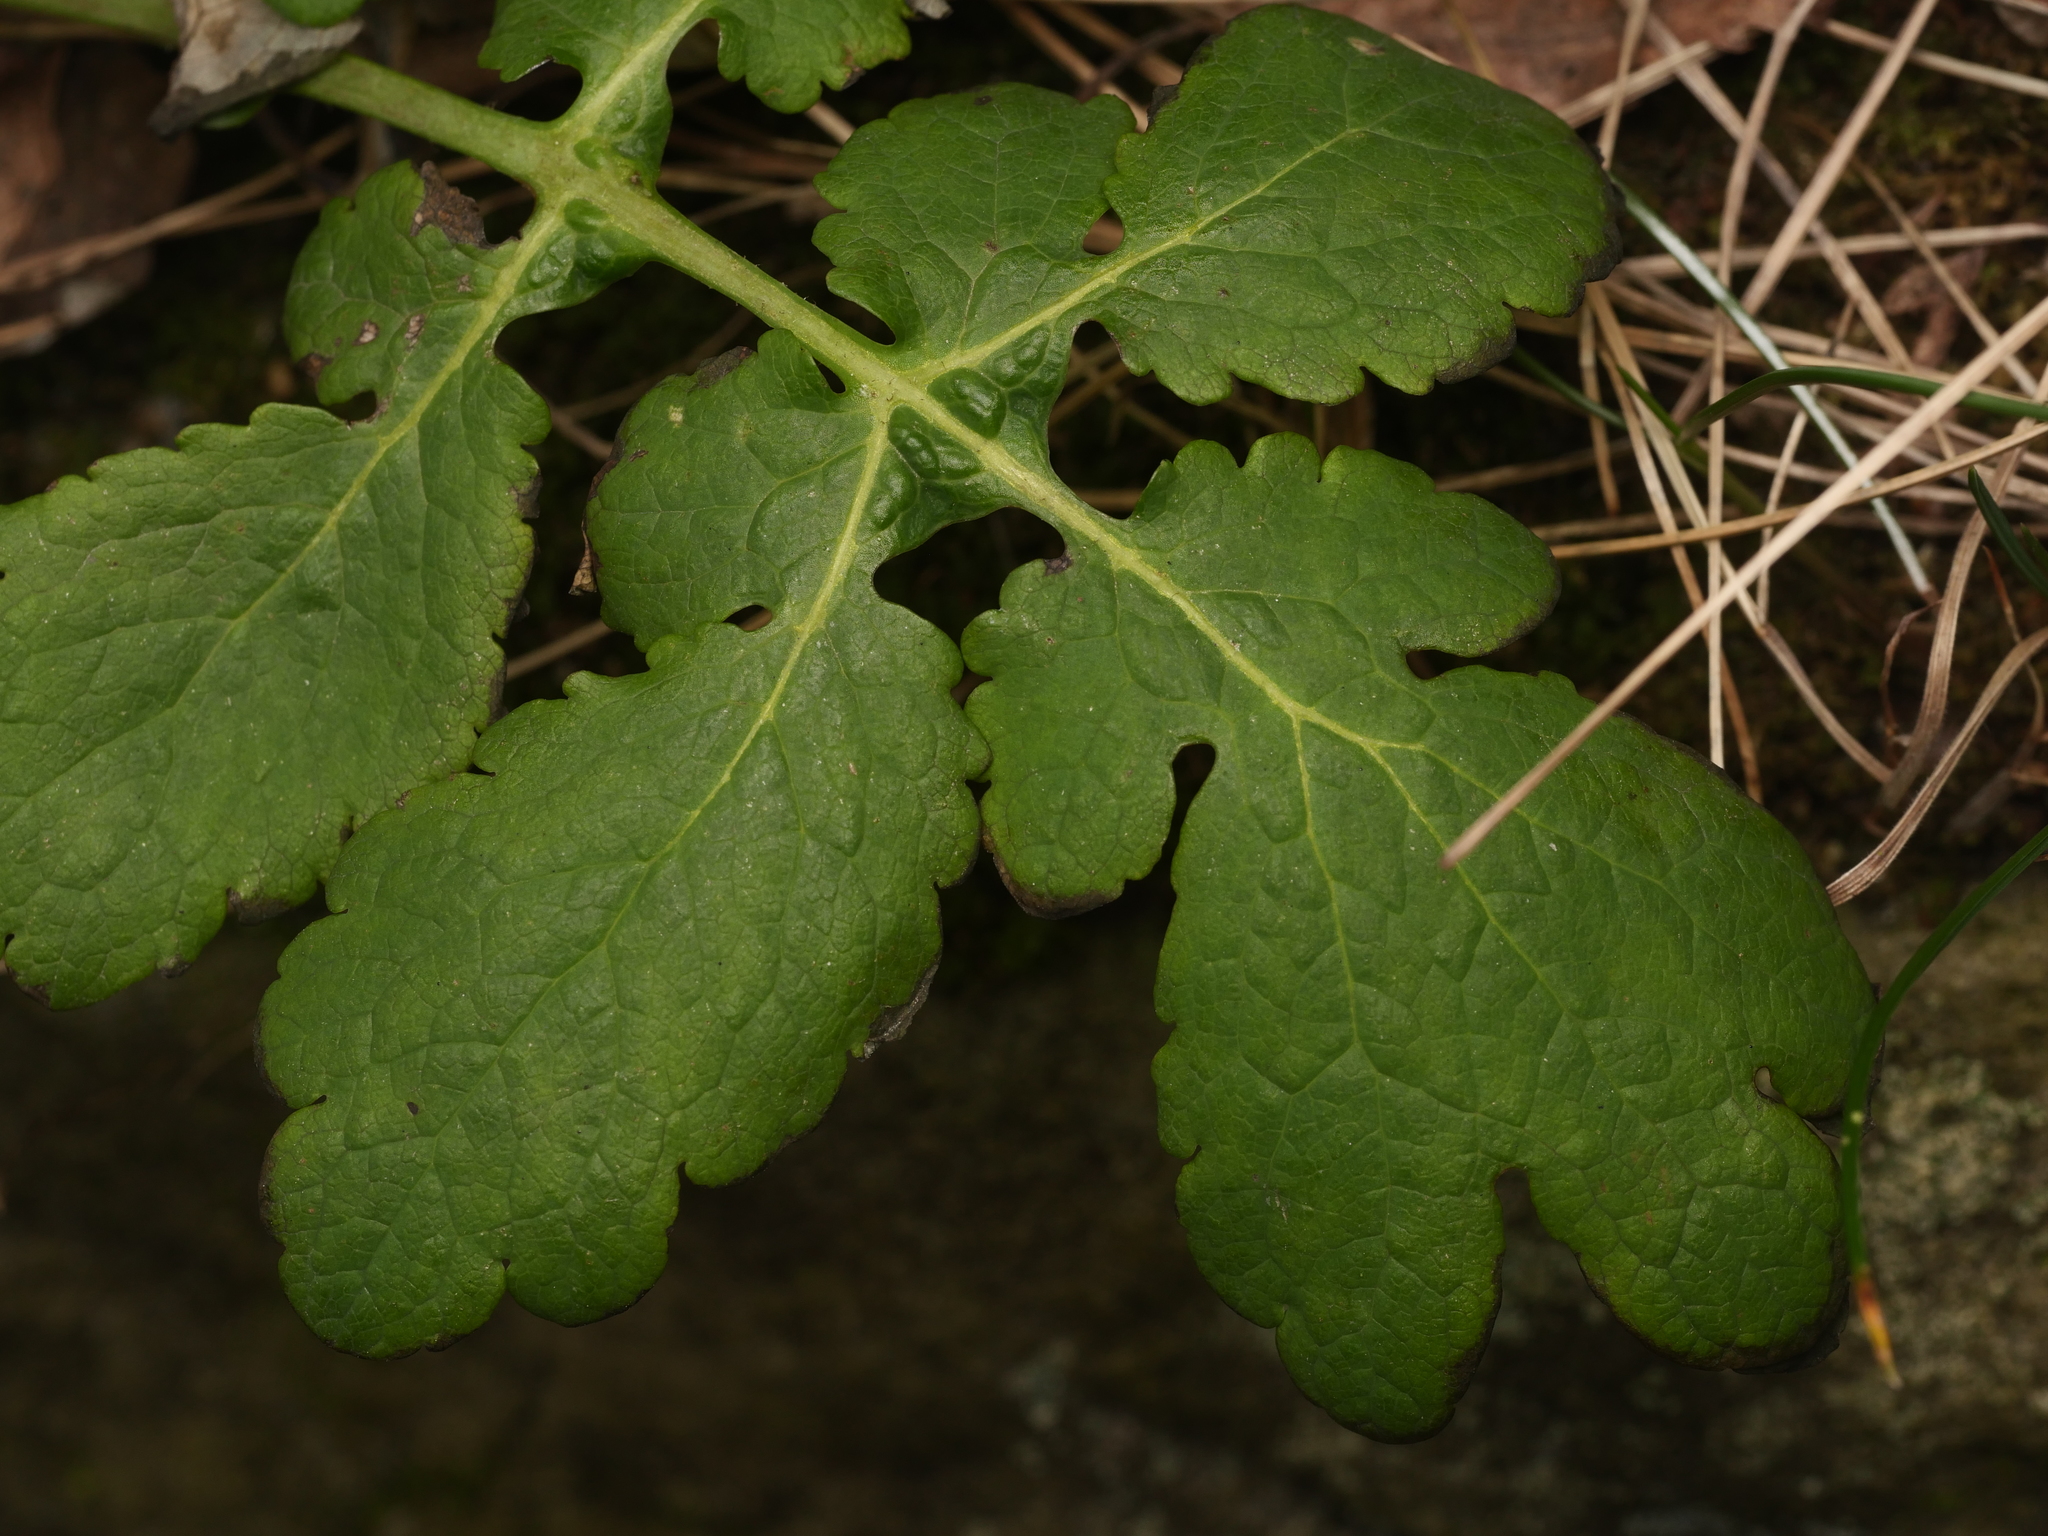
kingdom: Plantae
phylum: Tracheophyta
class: Magnoliopsida
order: Ranunculales
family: Papaveraceae
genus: Chelidonium
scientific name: Chelidonium majus
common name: Greater celandine
